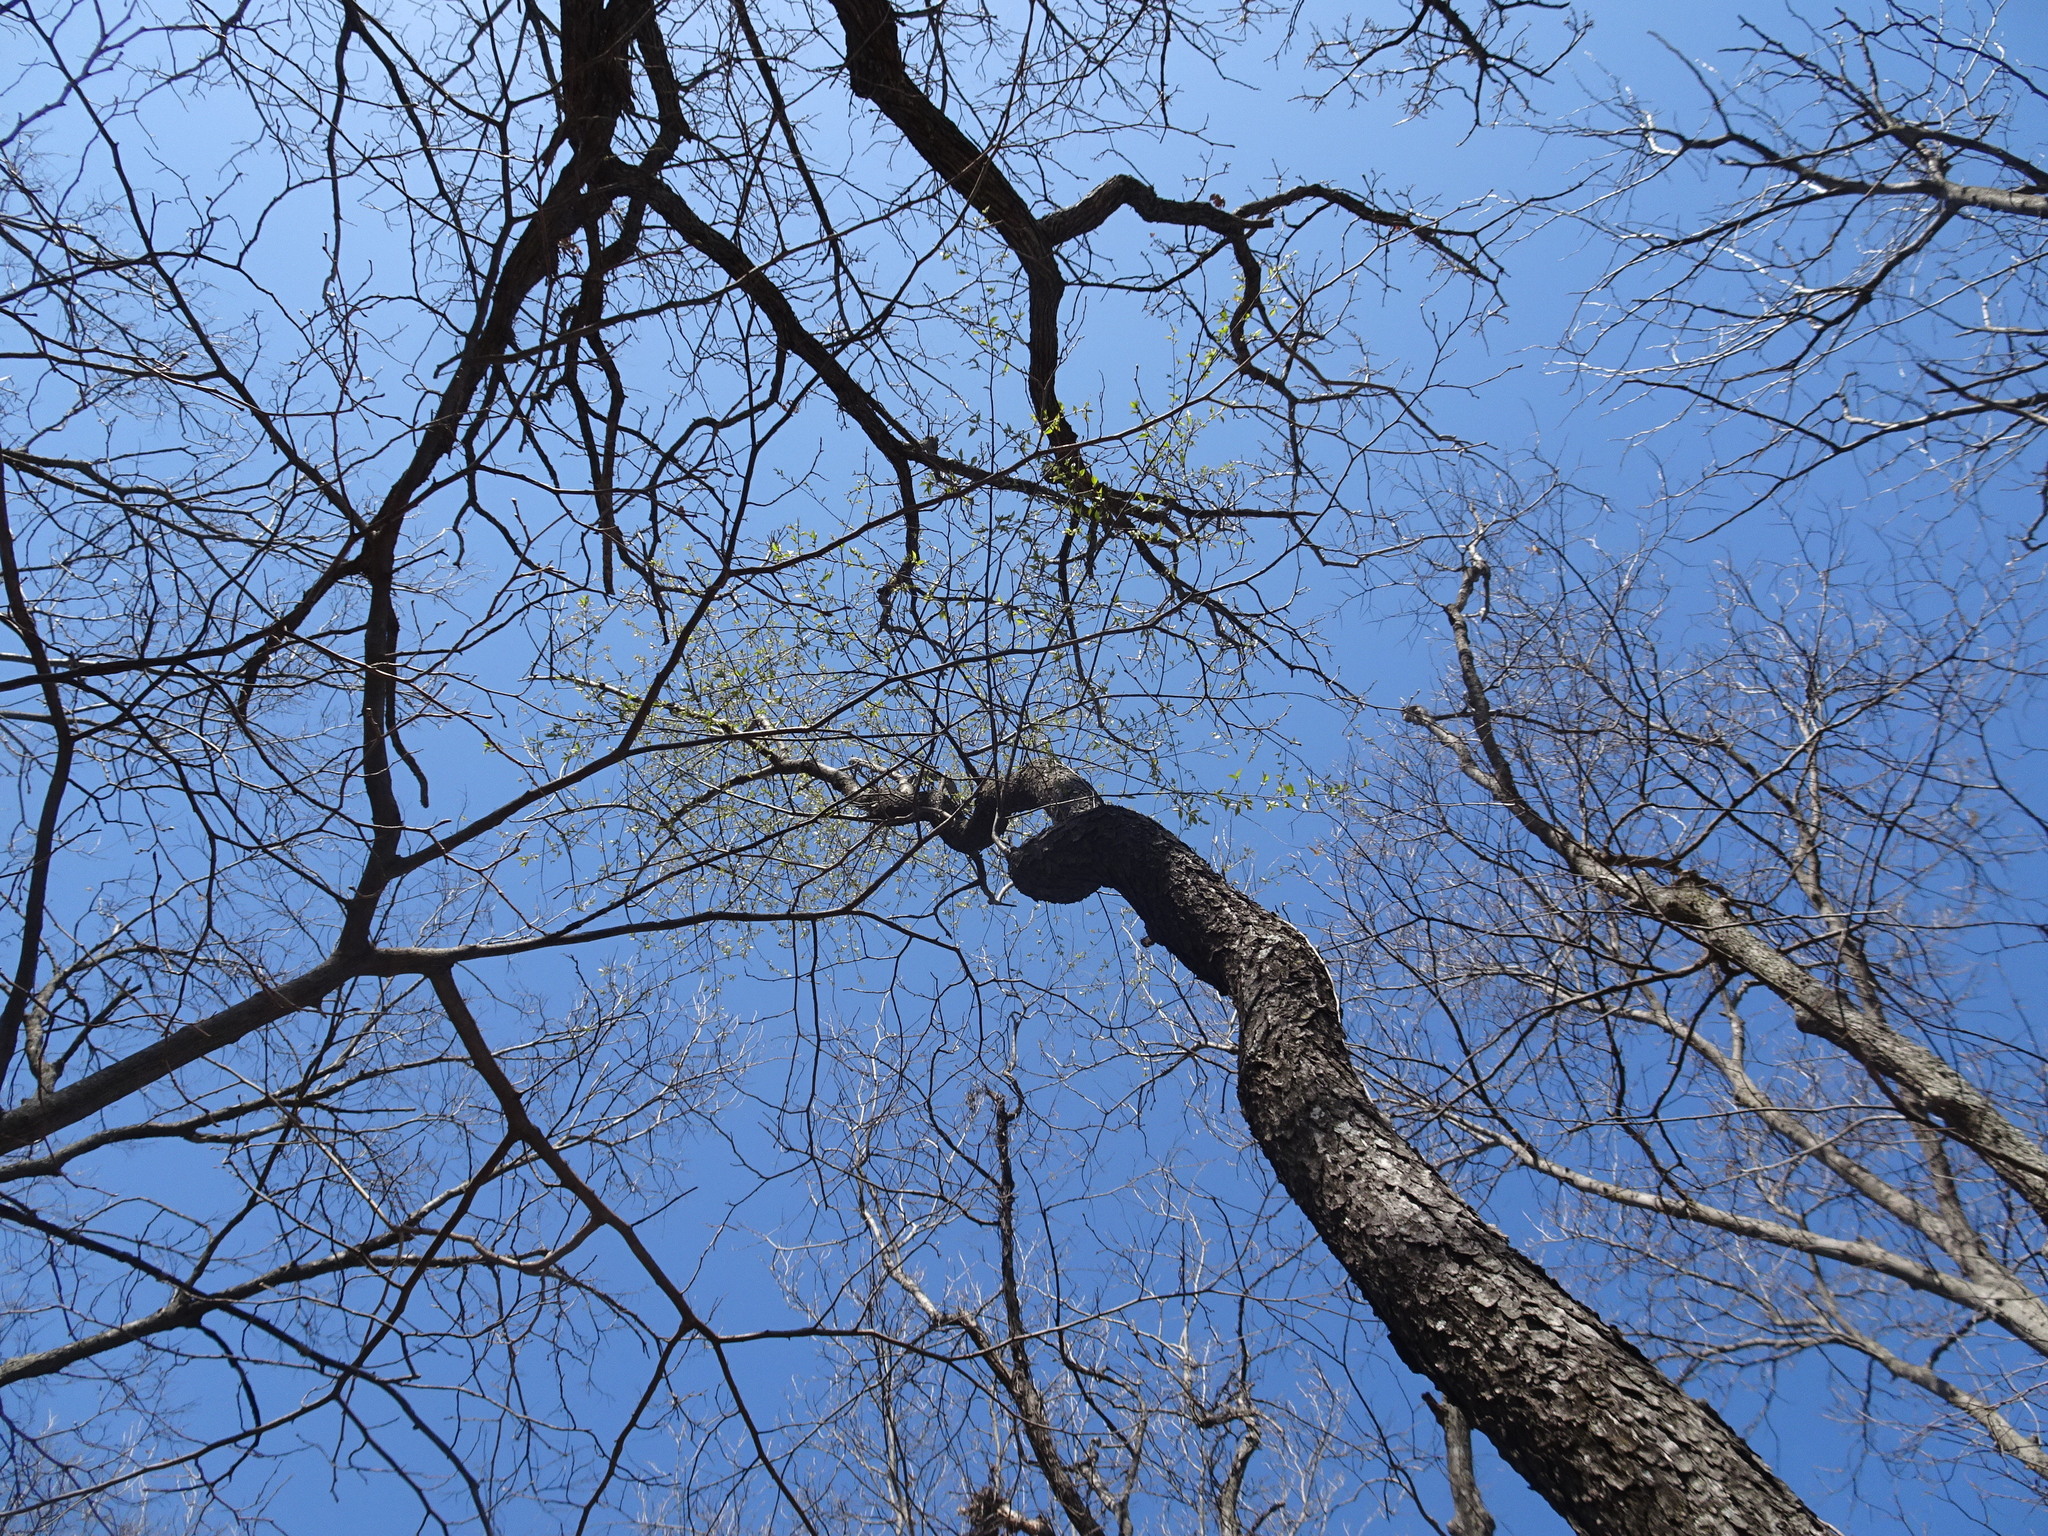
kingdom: Plantae
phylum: Tracheophyta
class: Magnoliopsida
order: Rosales
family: Rosaceae
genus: Prunus
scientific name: Prunus serotina
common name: Black cherry
